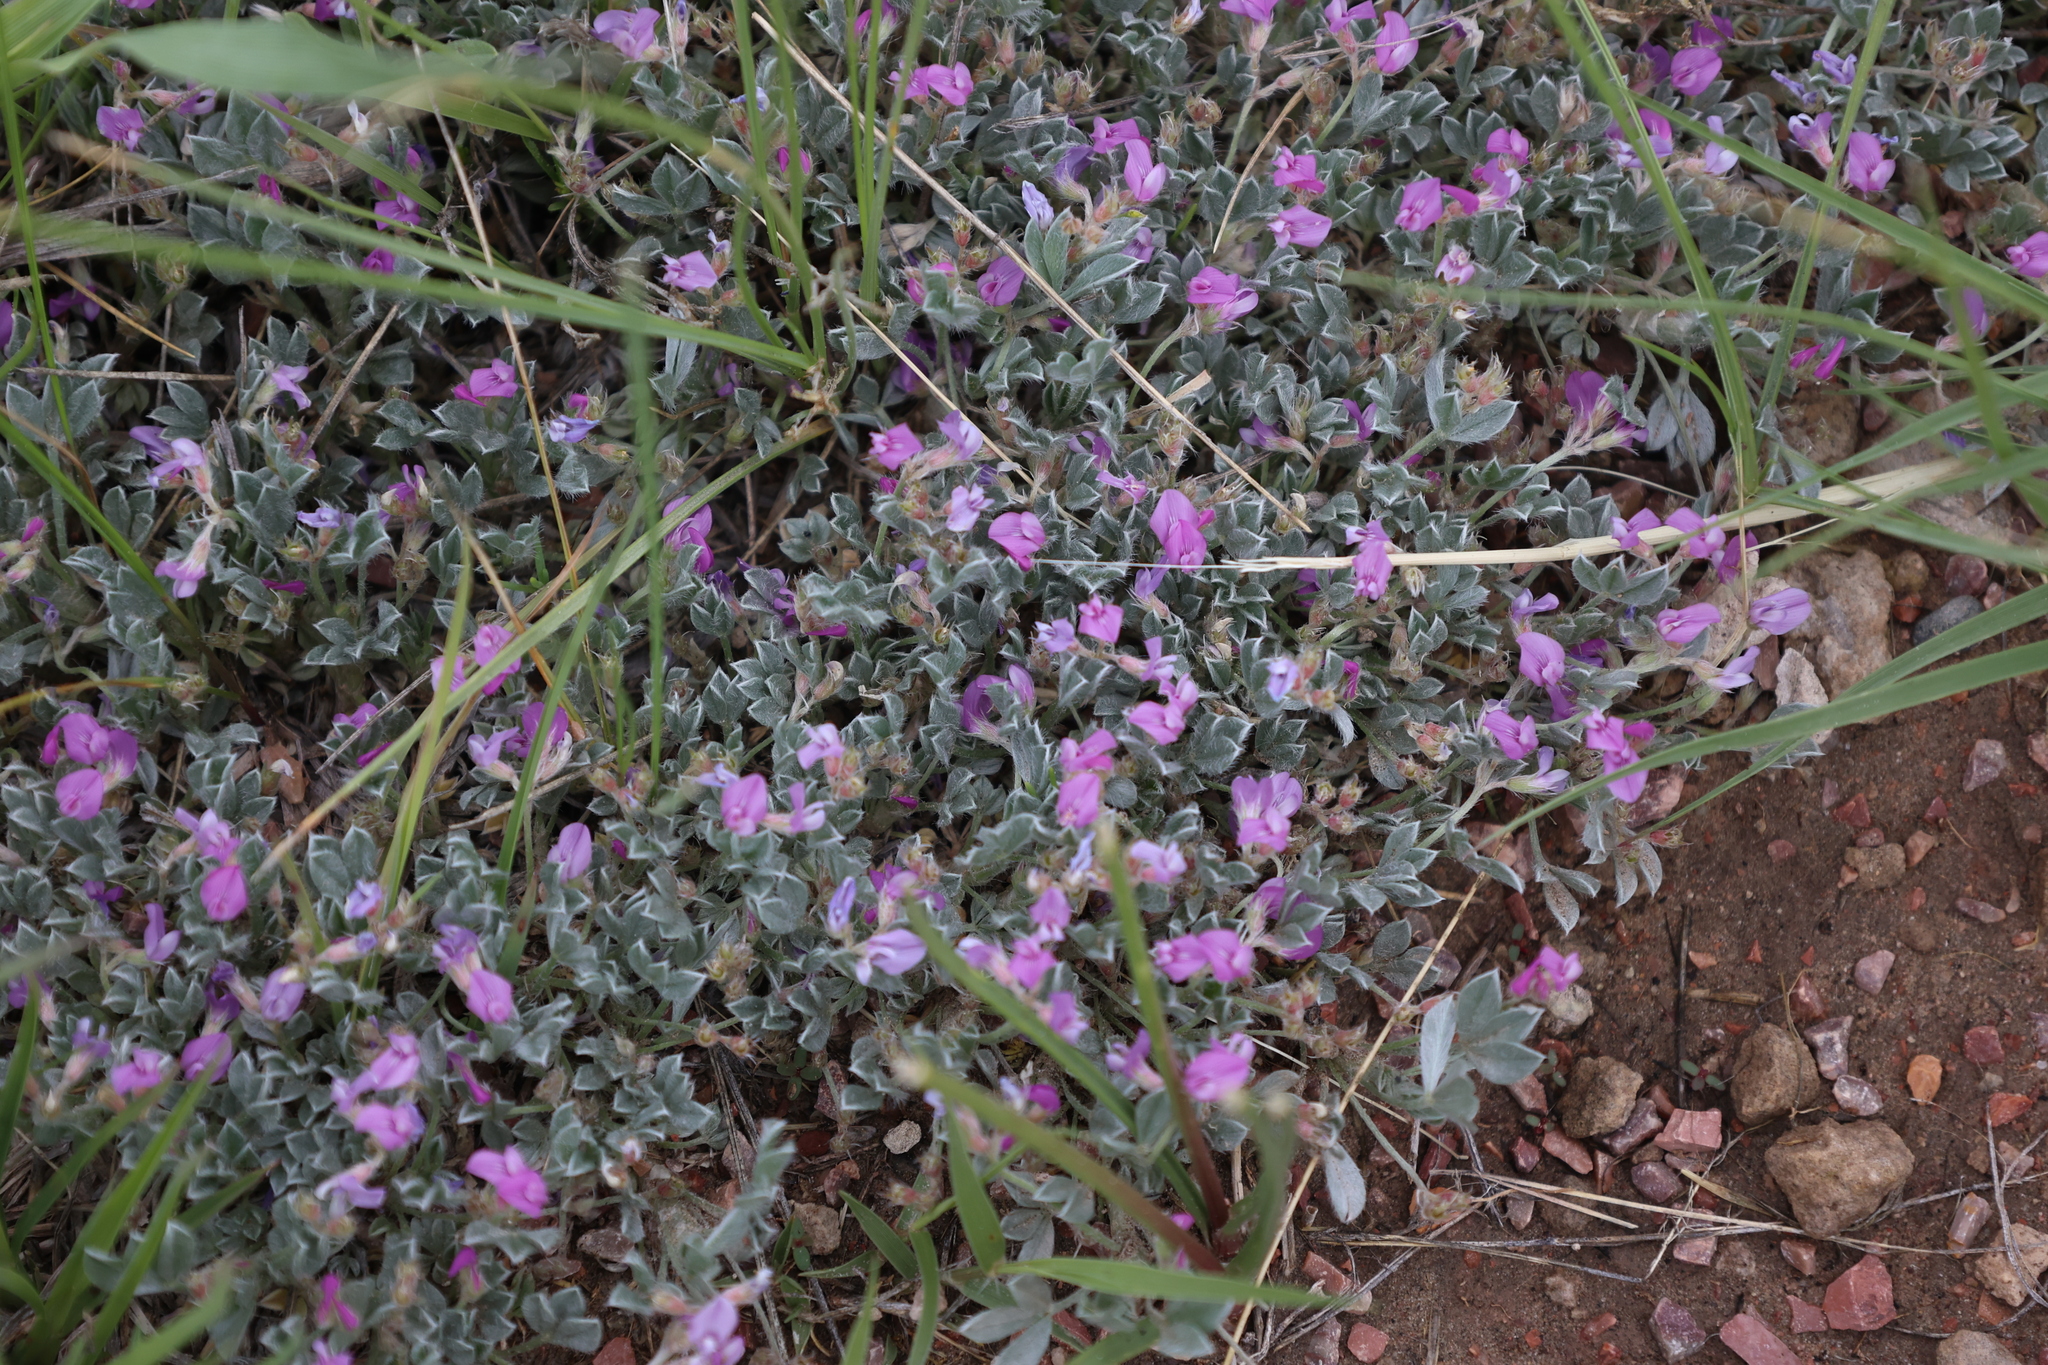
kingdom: Plantae
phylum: Tracheophyta
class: Magnoliopsida
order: Fabales
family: Fabaceae
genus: Astragalus
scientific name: Astragalus sericoleucus
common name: Silky orophaca
